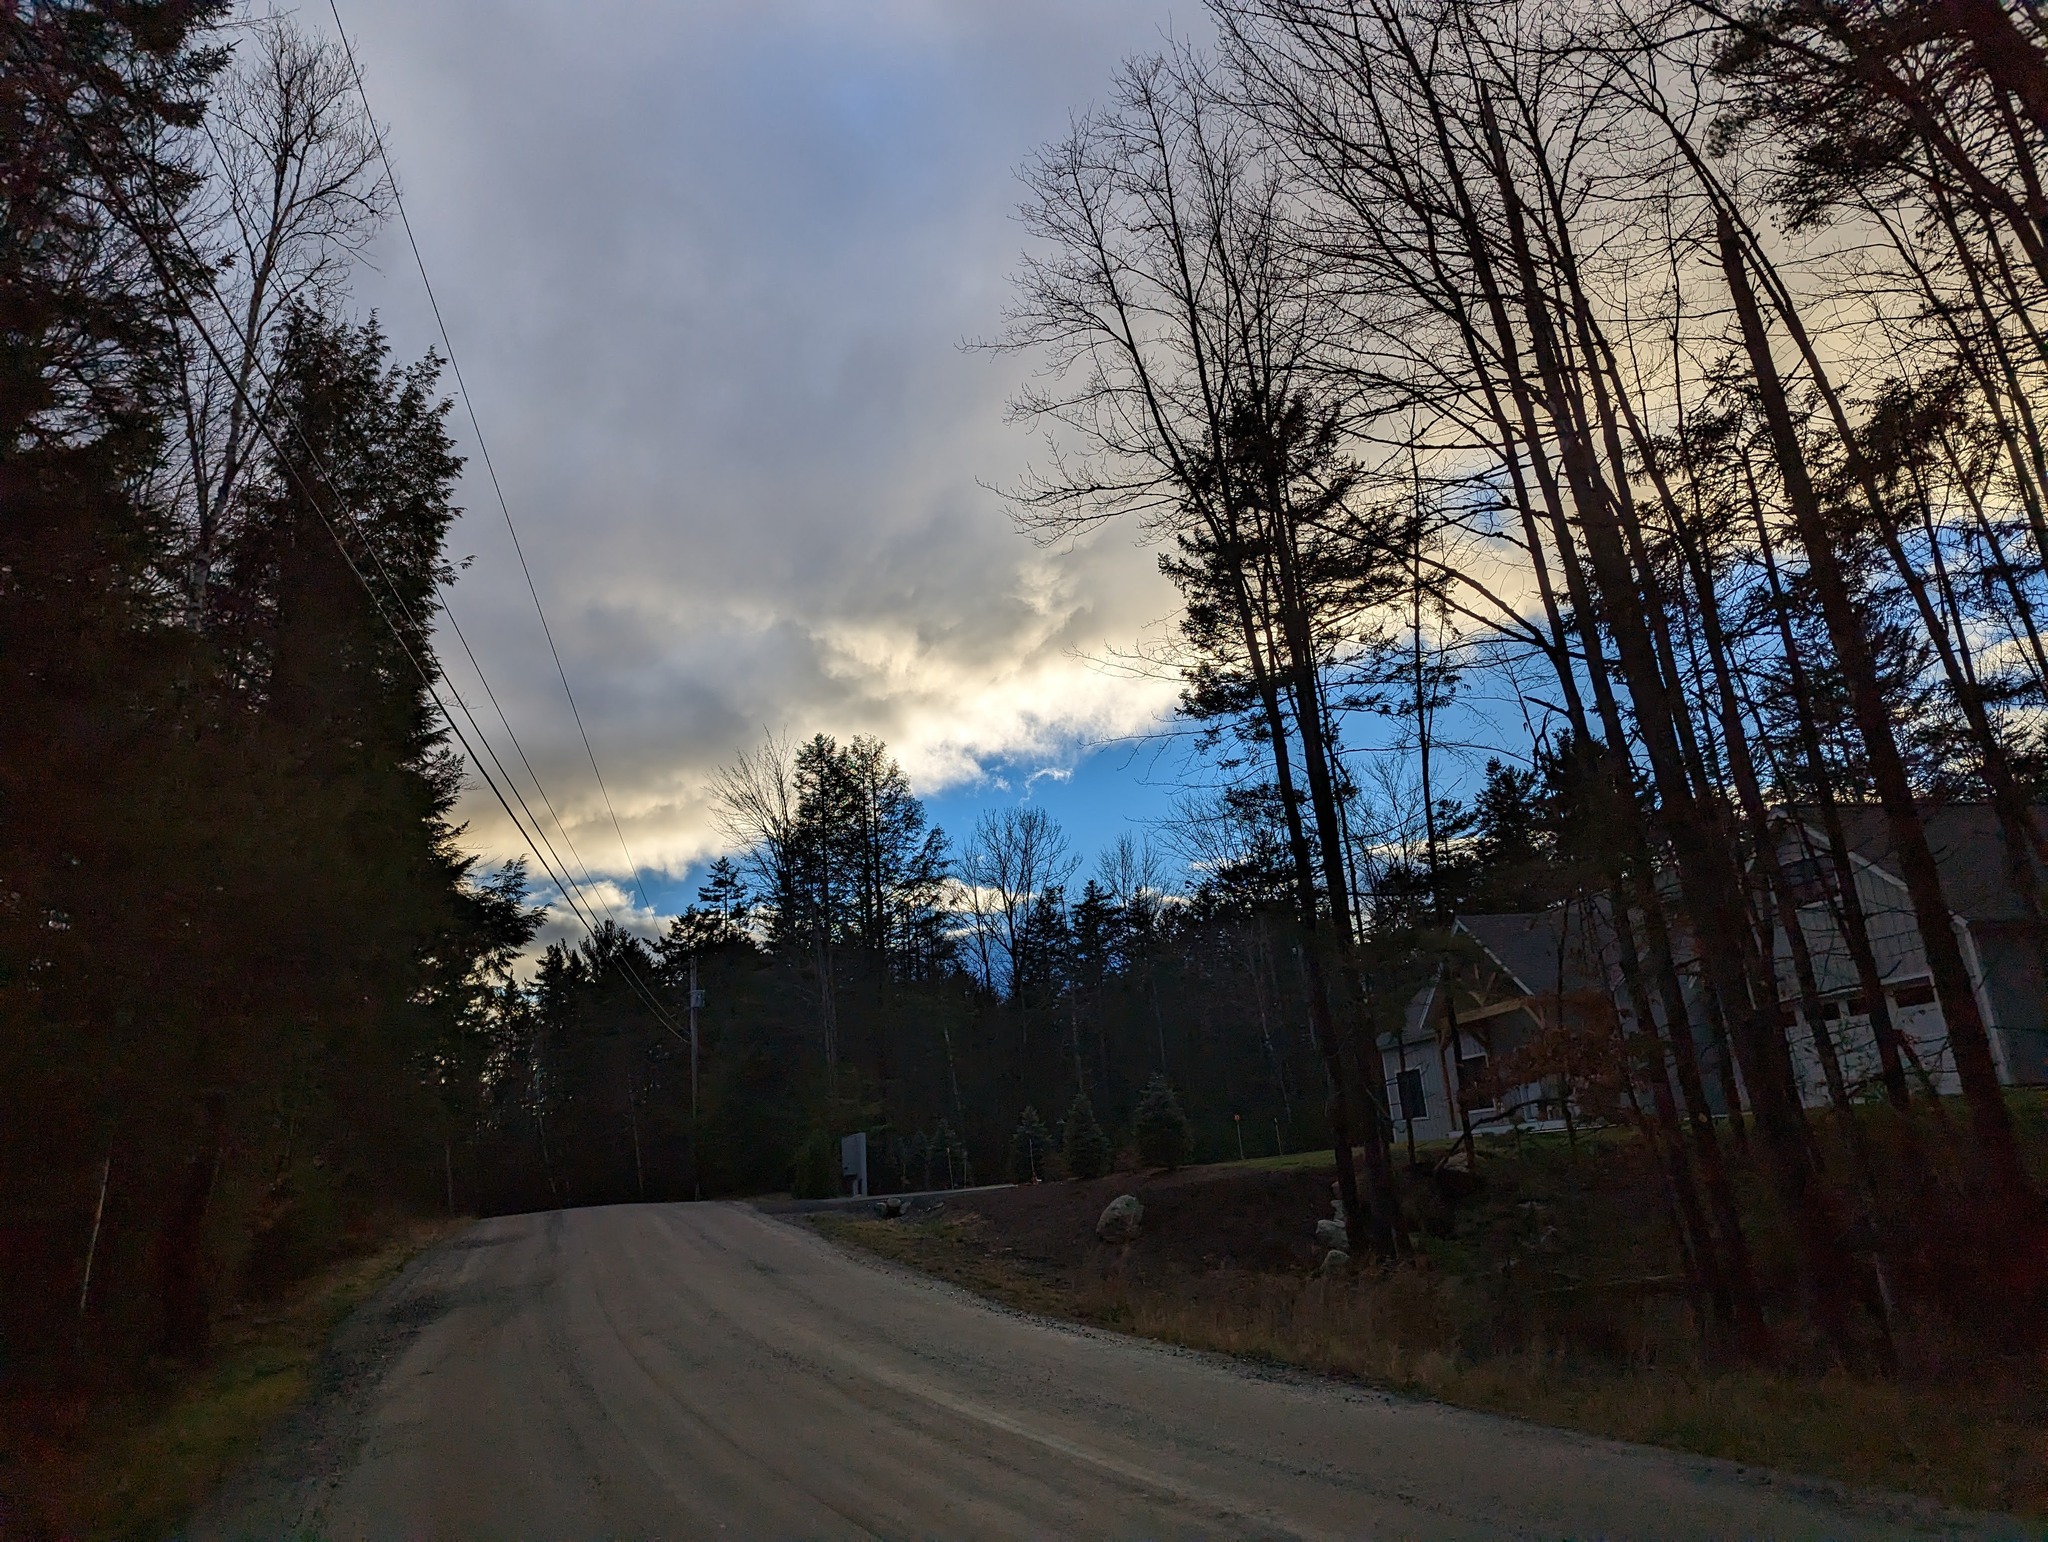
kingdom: Plantae
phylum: Tracheophyta
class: Pinopsida
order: Pinales
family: Pinaceae
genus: Pinus
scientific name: Pinus strobus
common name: Weymouth pine
